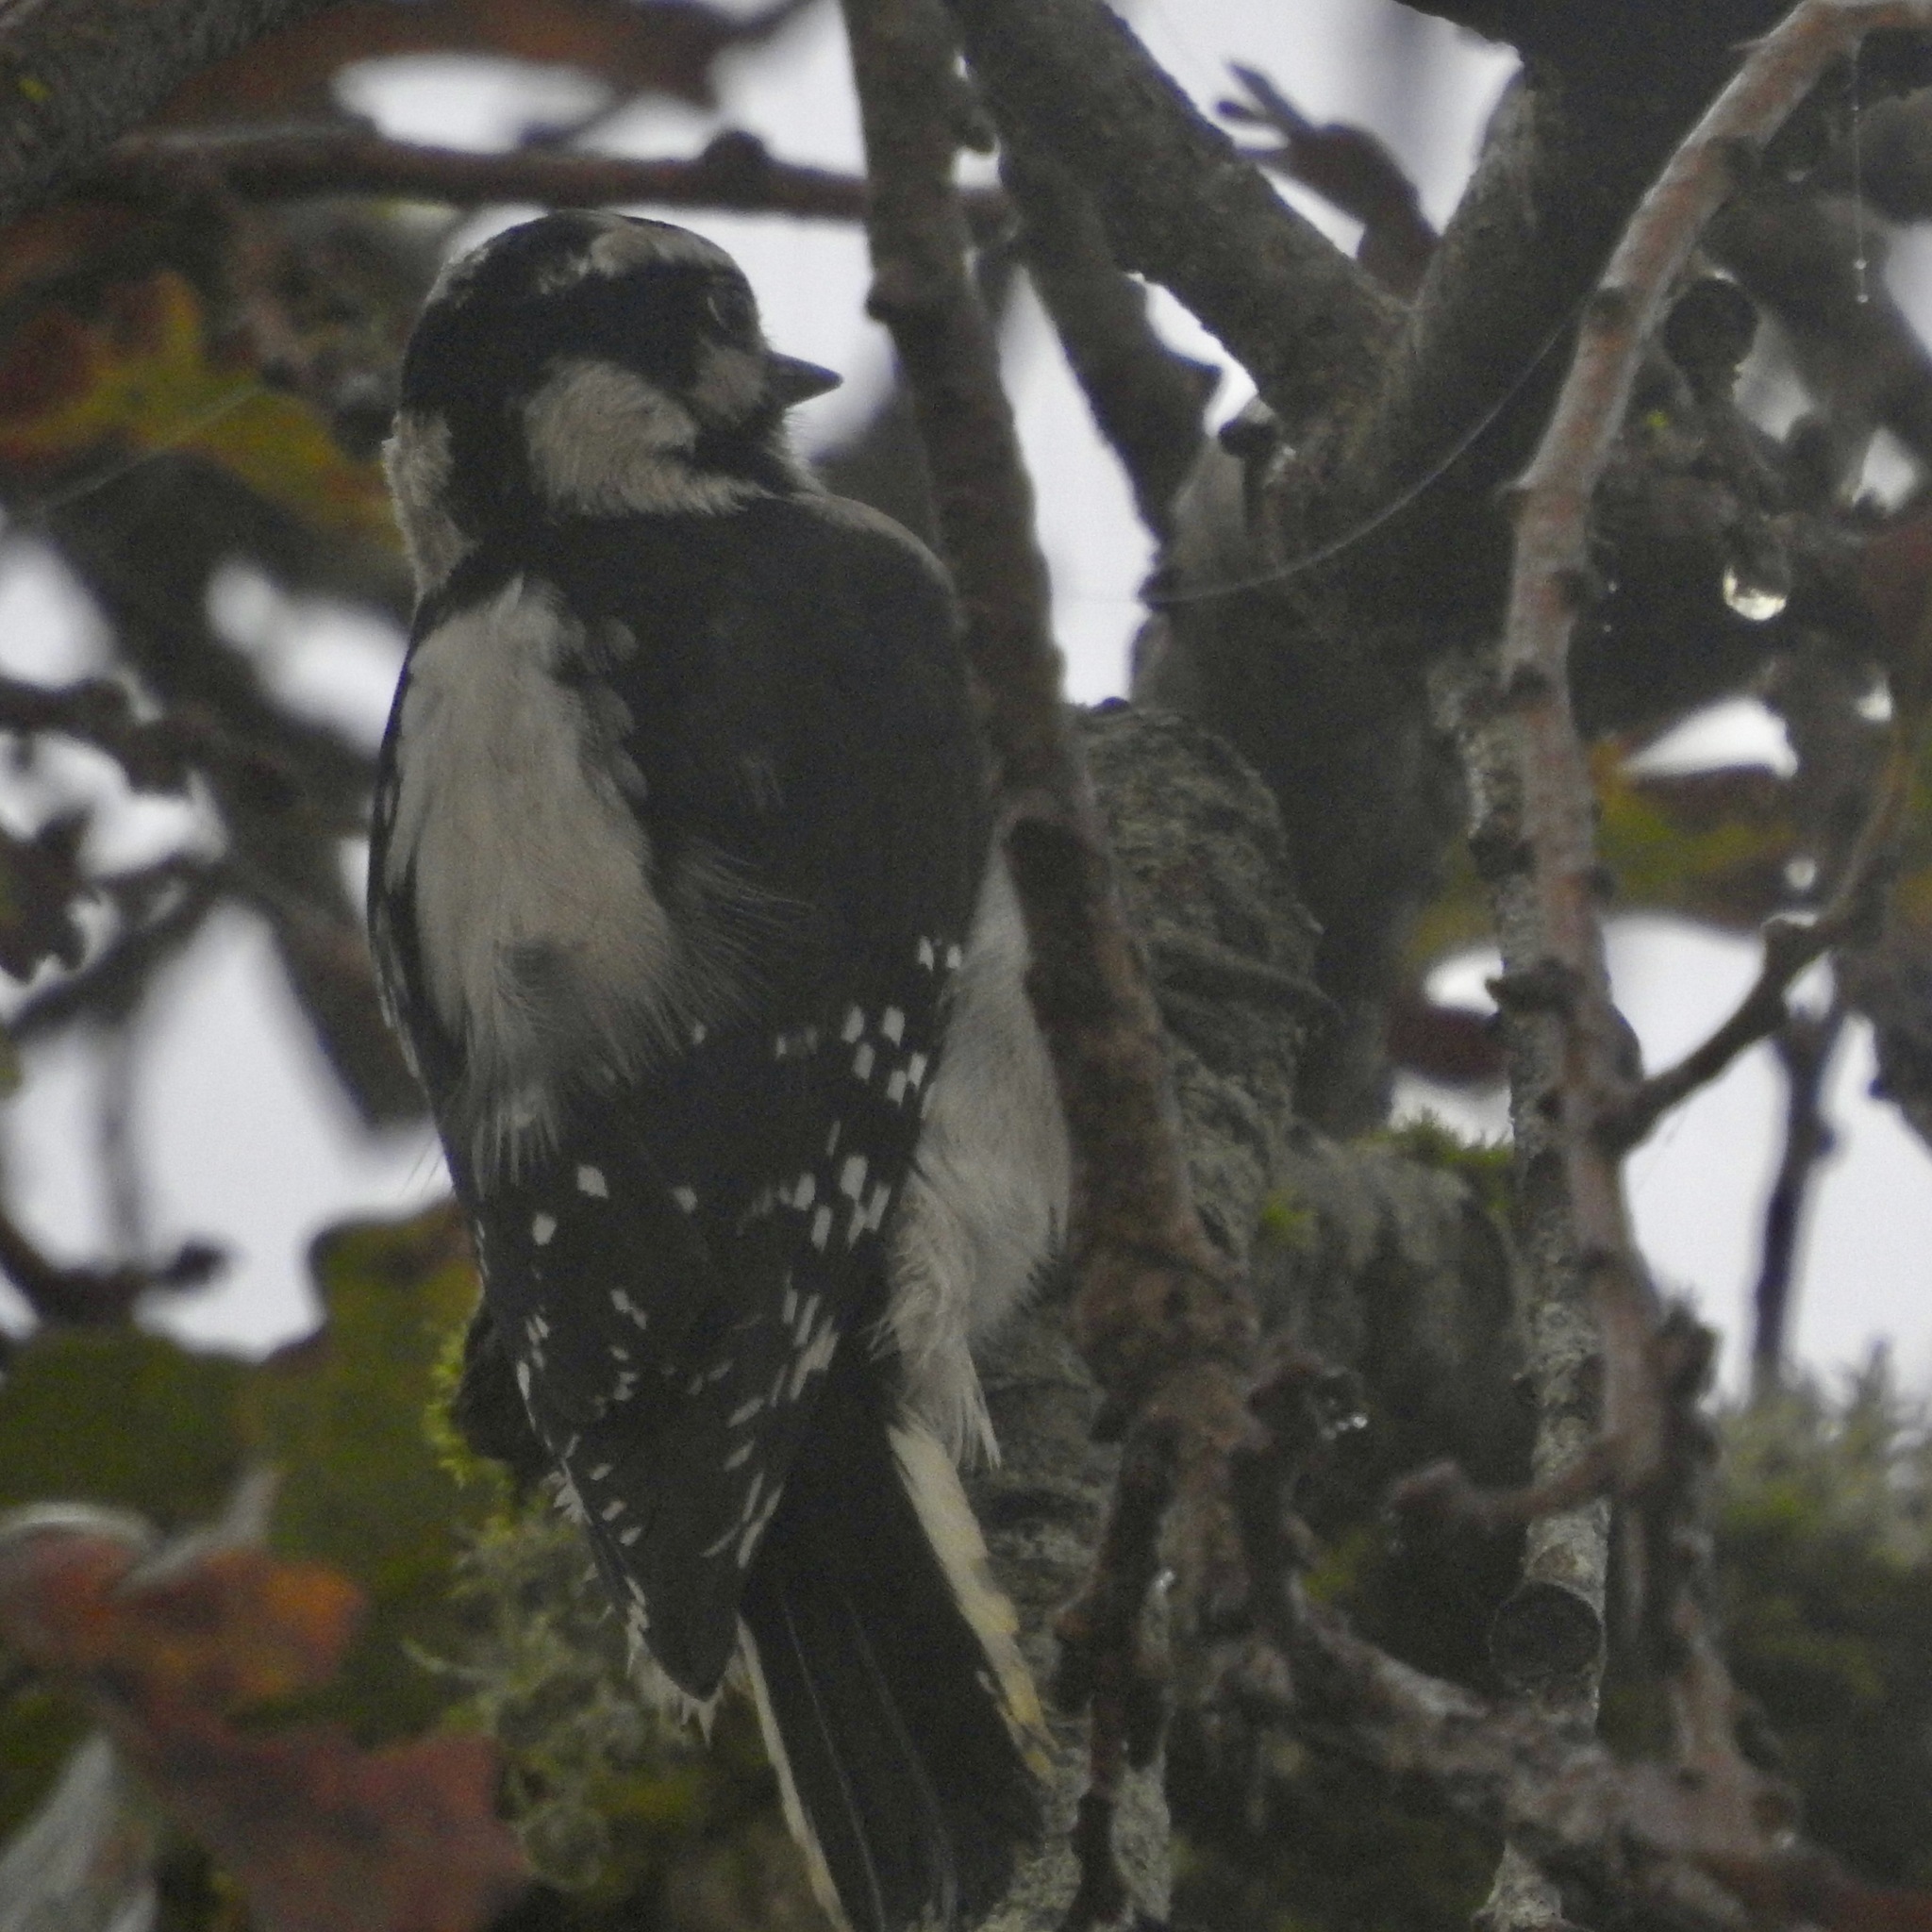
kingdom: Animalia
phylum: Chordata
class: Aves
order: Piciformes
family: Picidae
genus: Dryobates
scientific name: Dryobates pubescens
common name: Downy woodpecker
